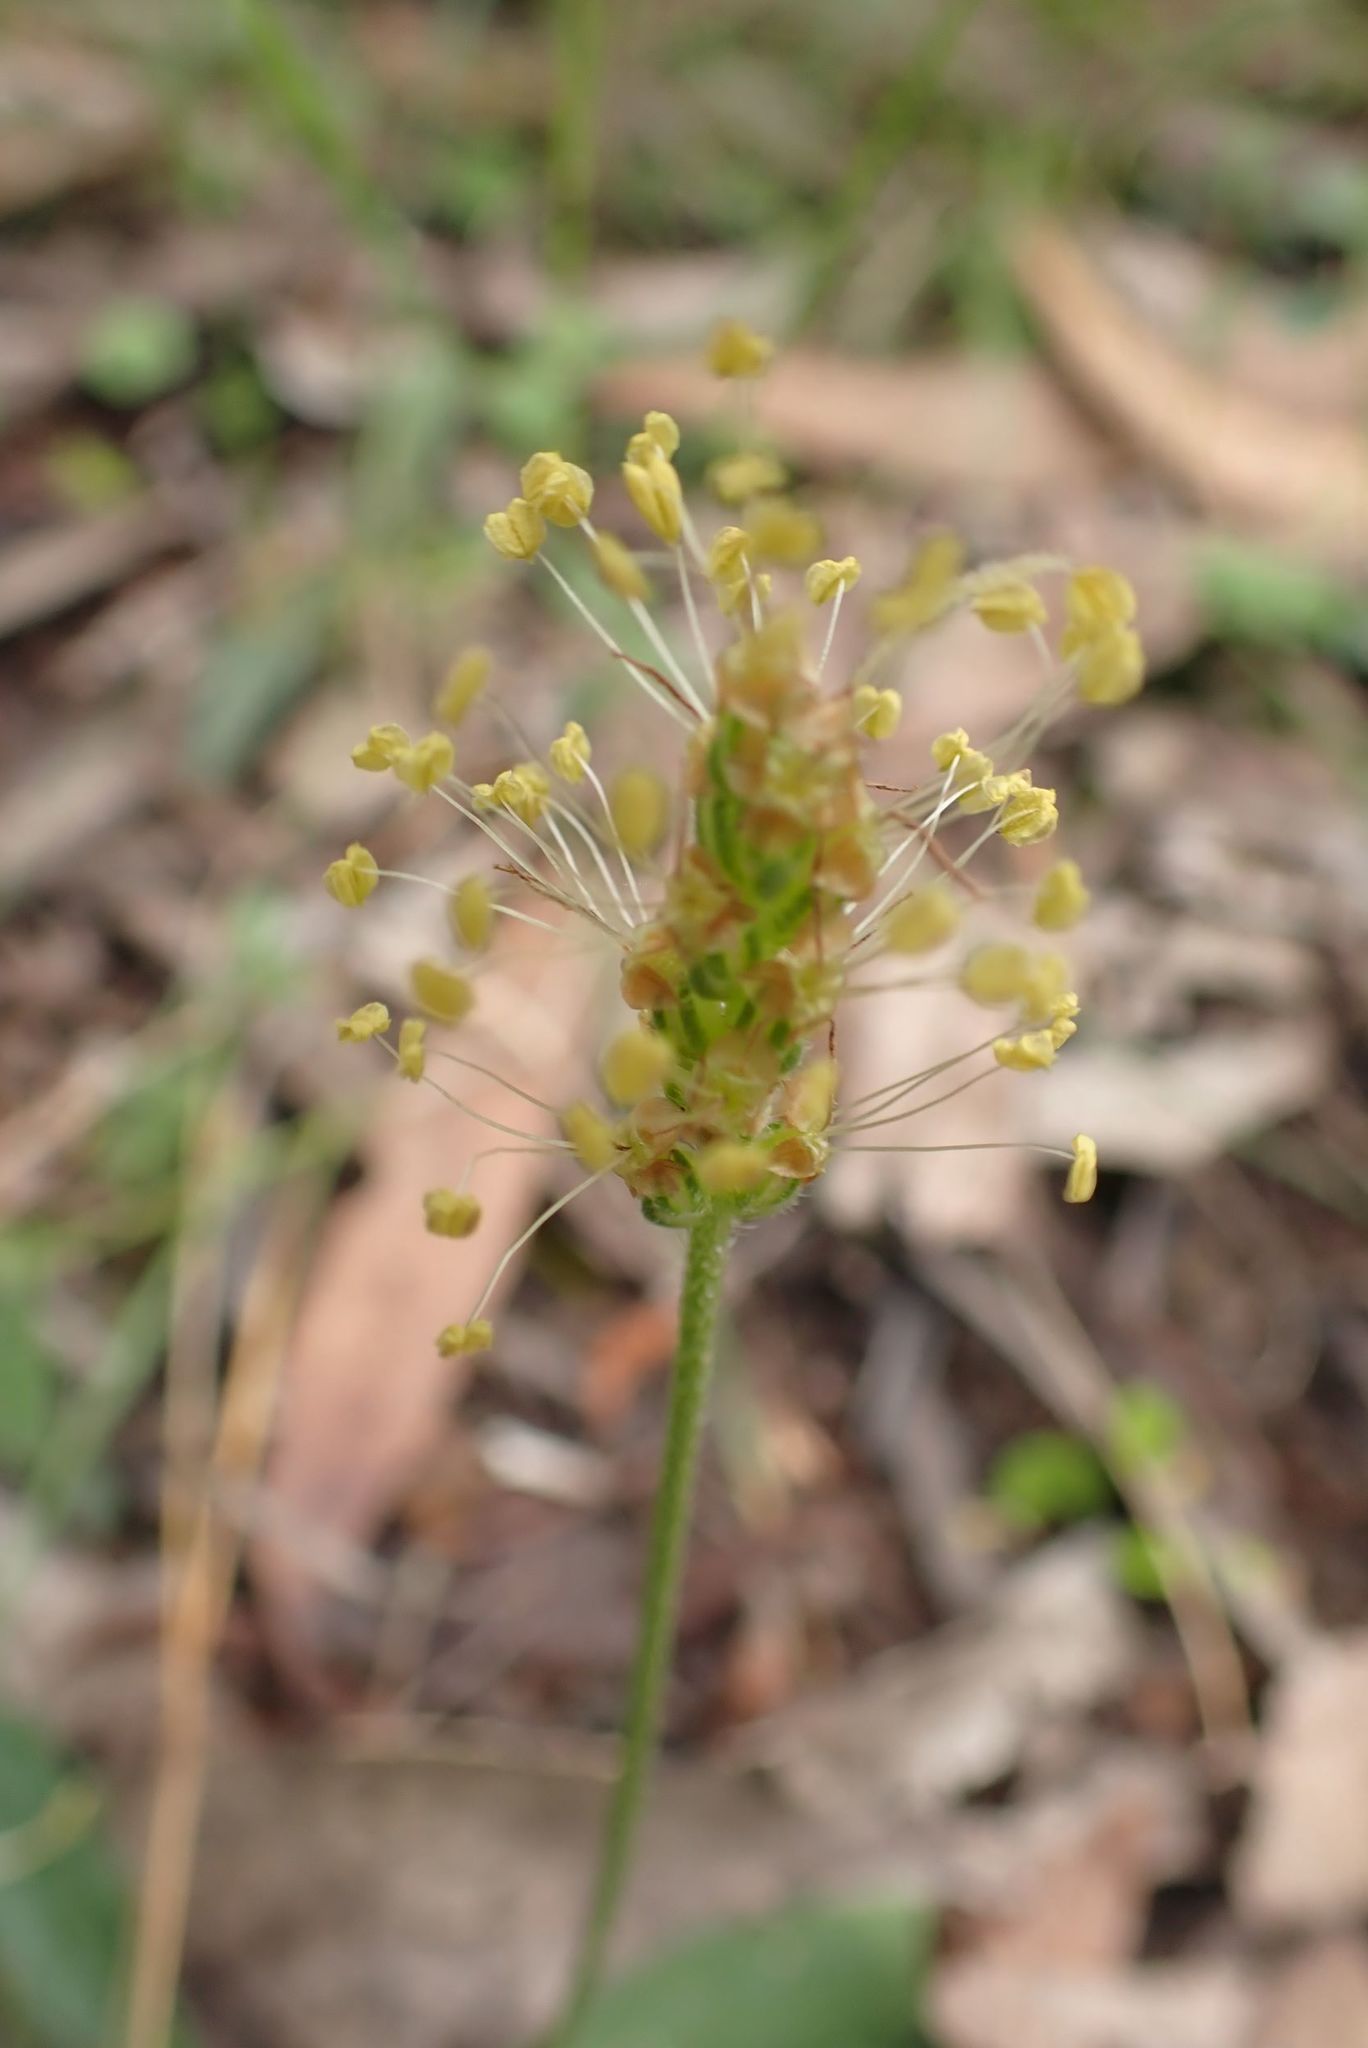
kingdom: Plantae
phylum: Tracheophyta
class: Magnoliopsida
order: Lamiales
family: Plantaginaceae
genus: Plantago
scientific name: Plantago varia
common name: Variable plantain
